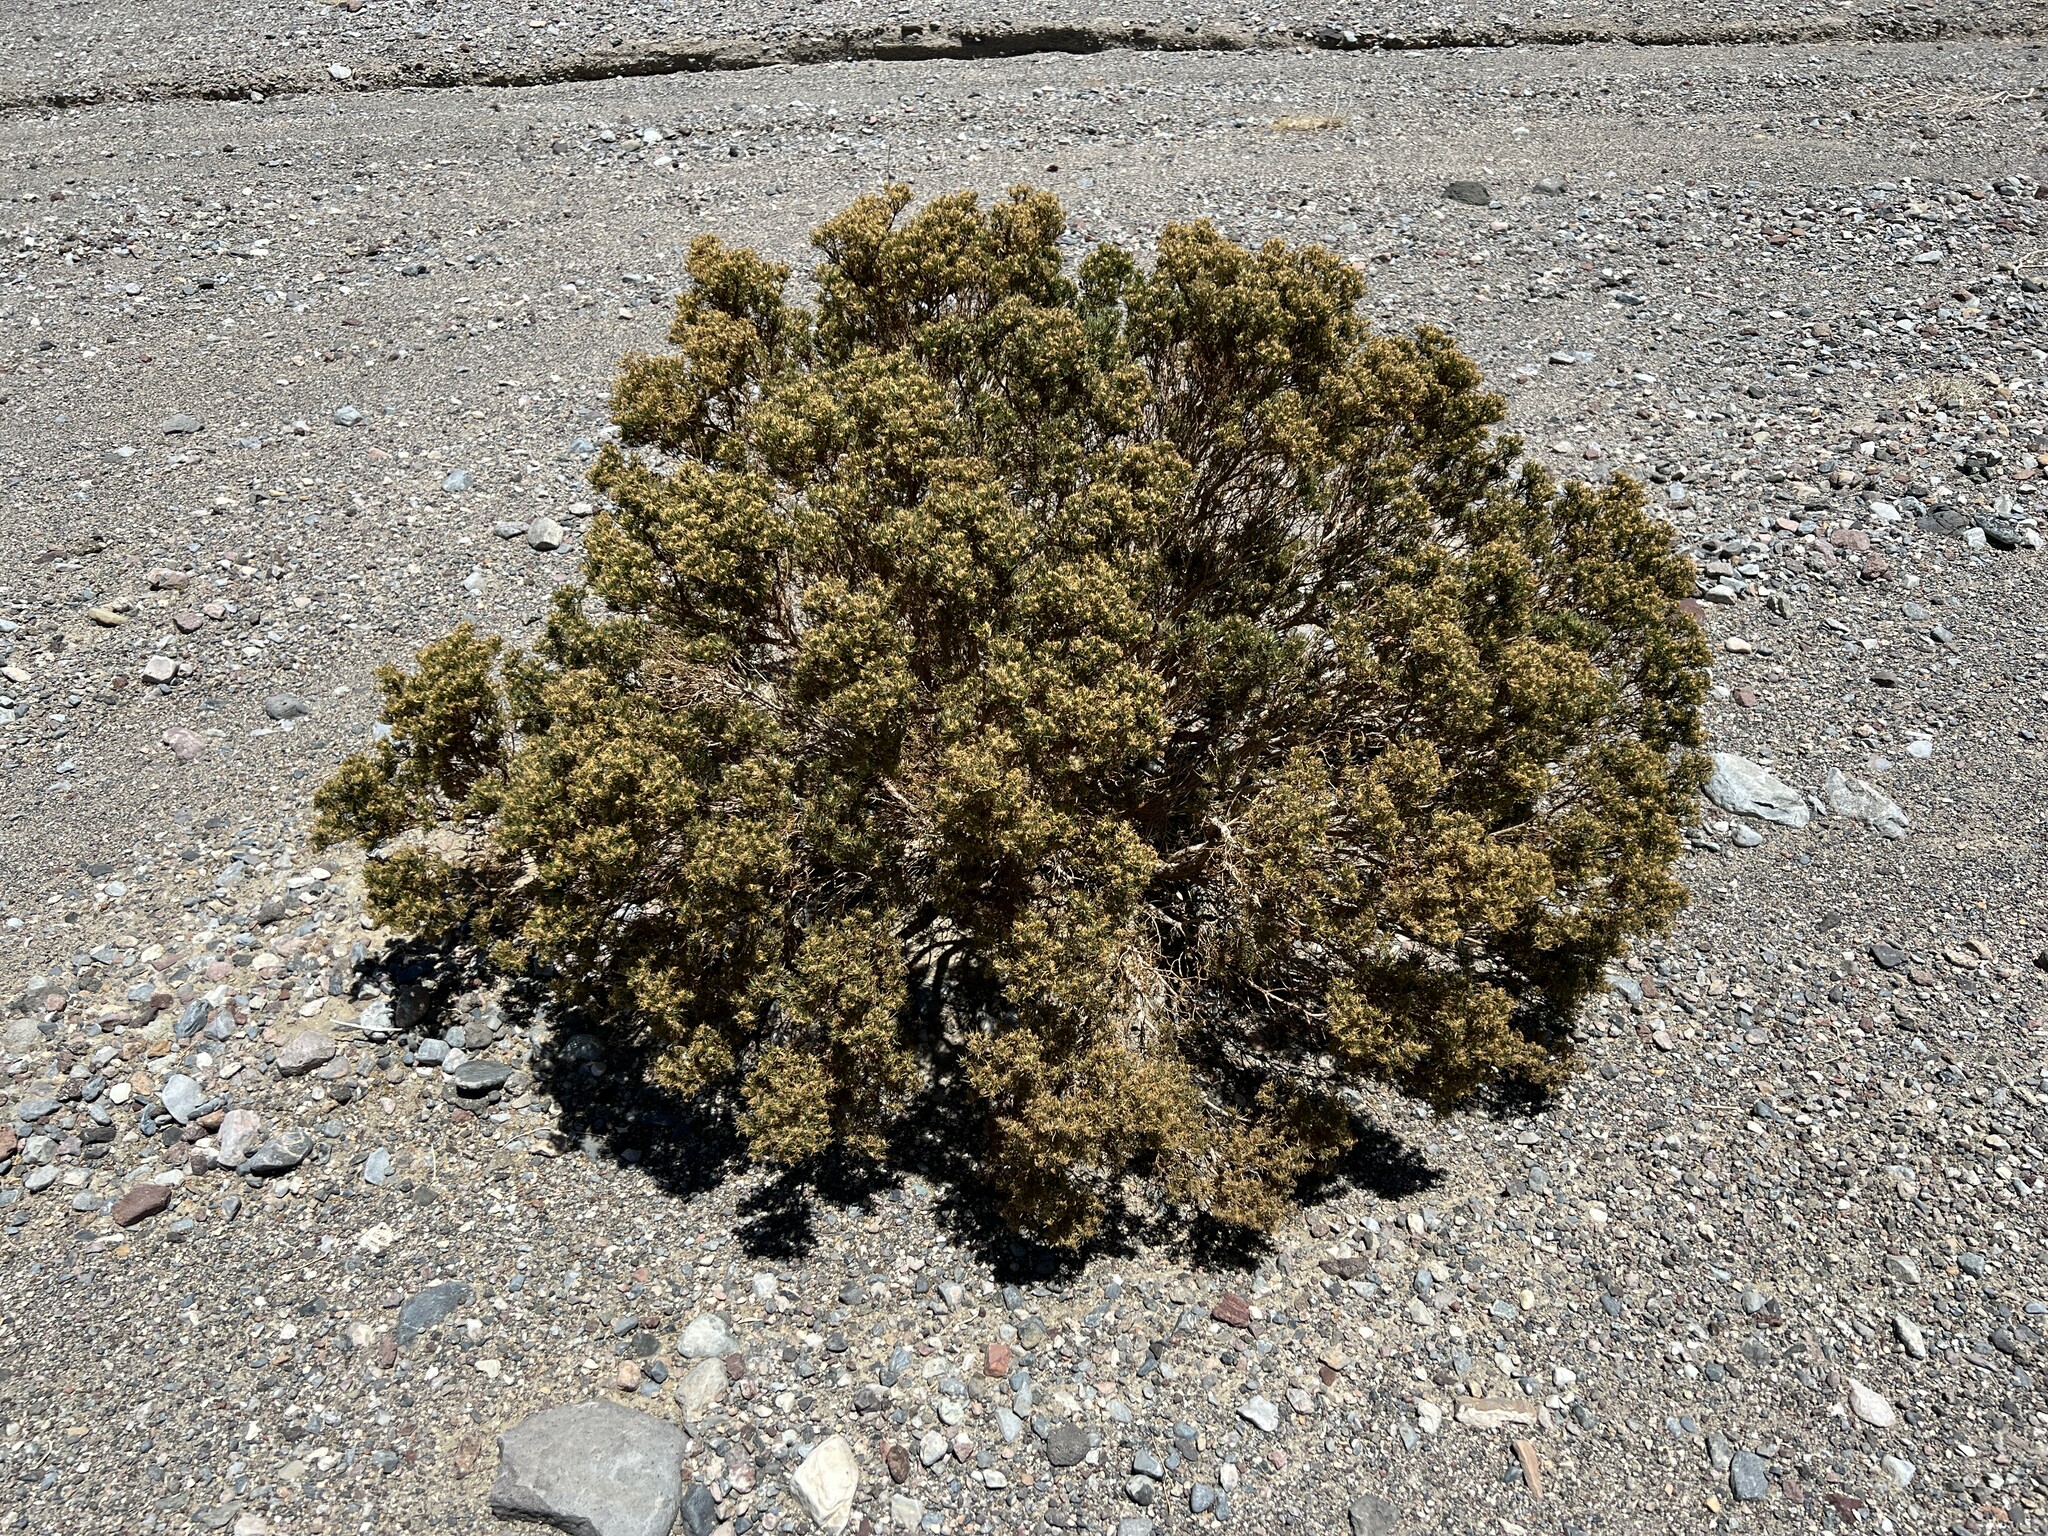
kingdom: Plantae
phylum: Tracheophyta
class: Magnoliopsida
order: Asterales
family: Asteraceae
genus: Peucephyllum
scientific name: Peucephyllum schottii
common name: Pygmy-cedar
